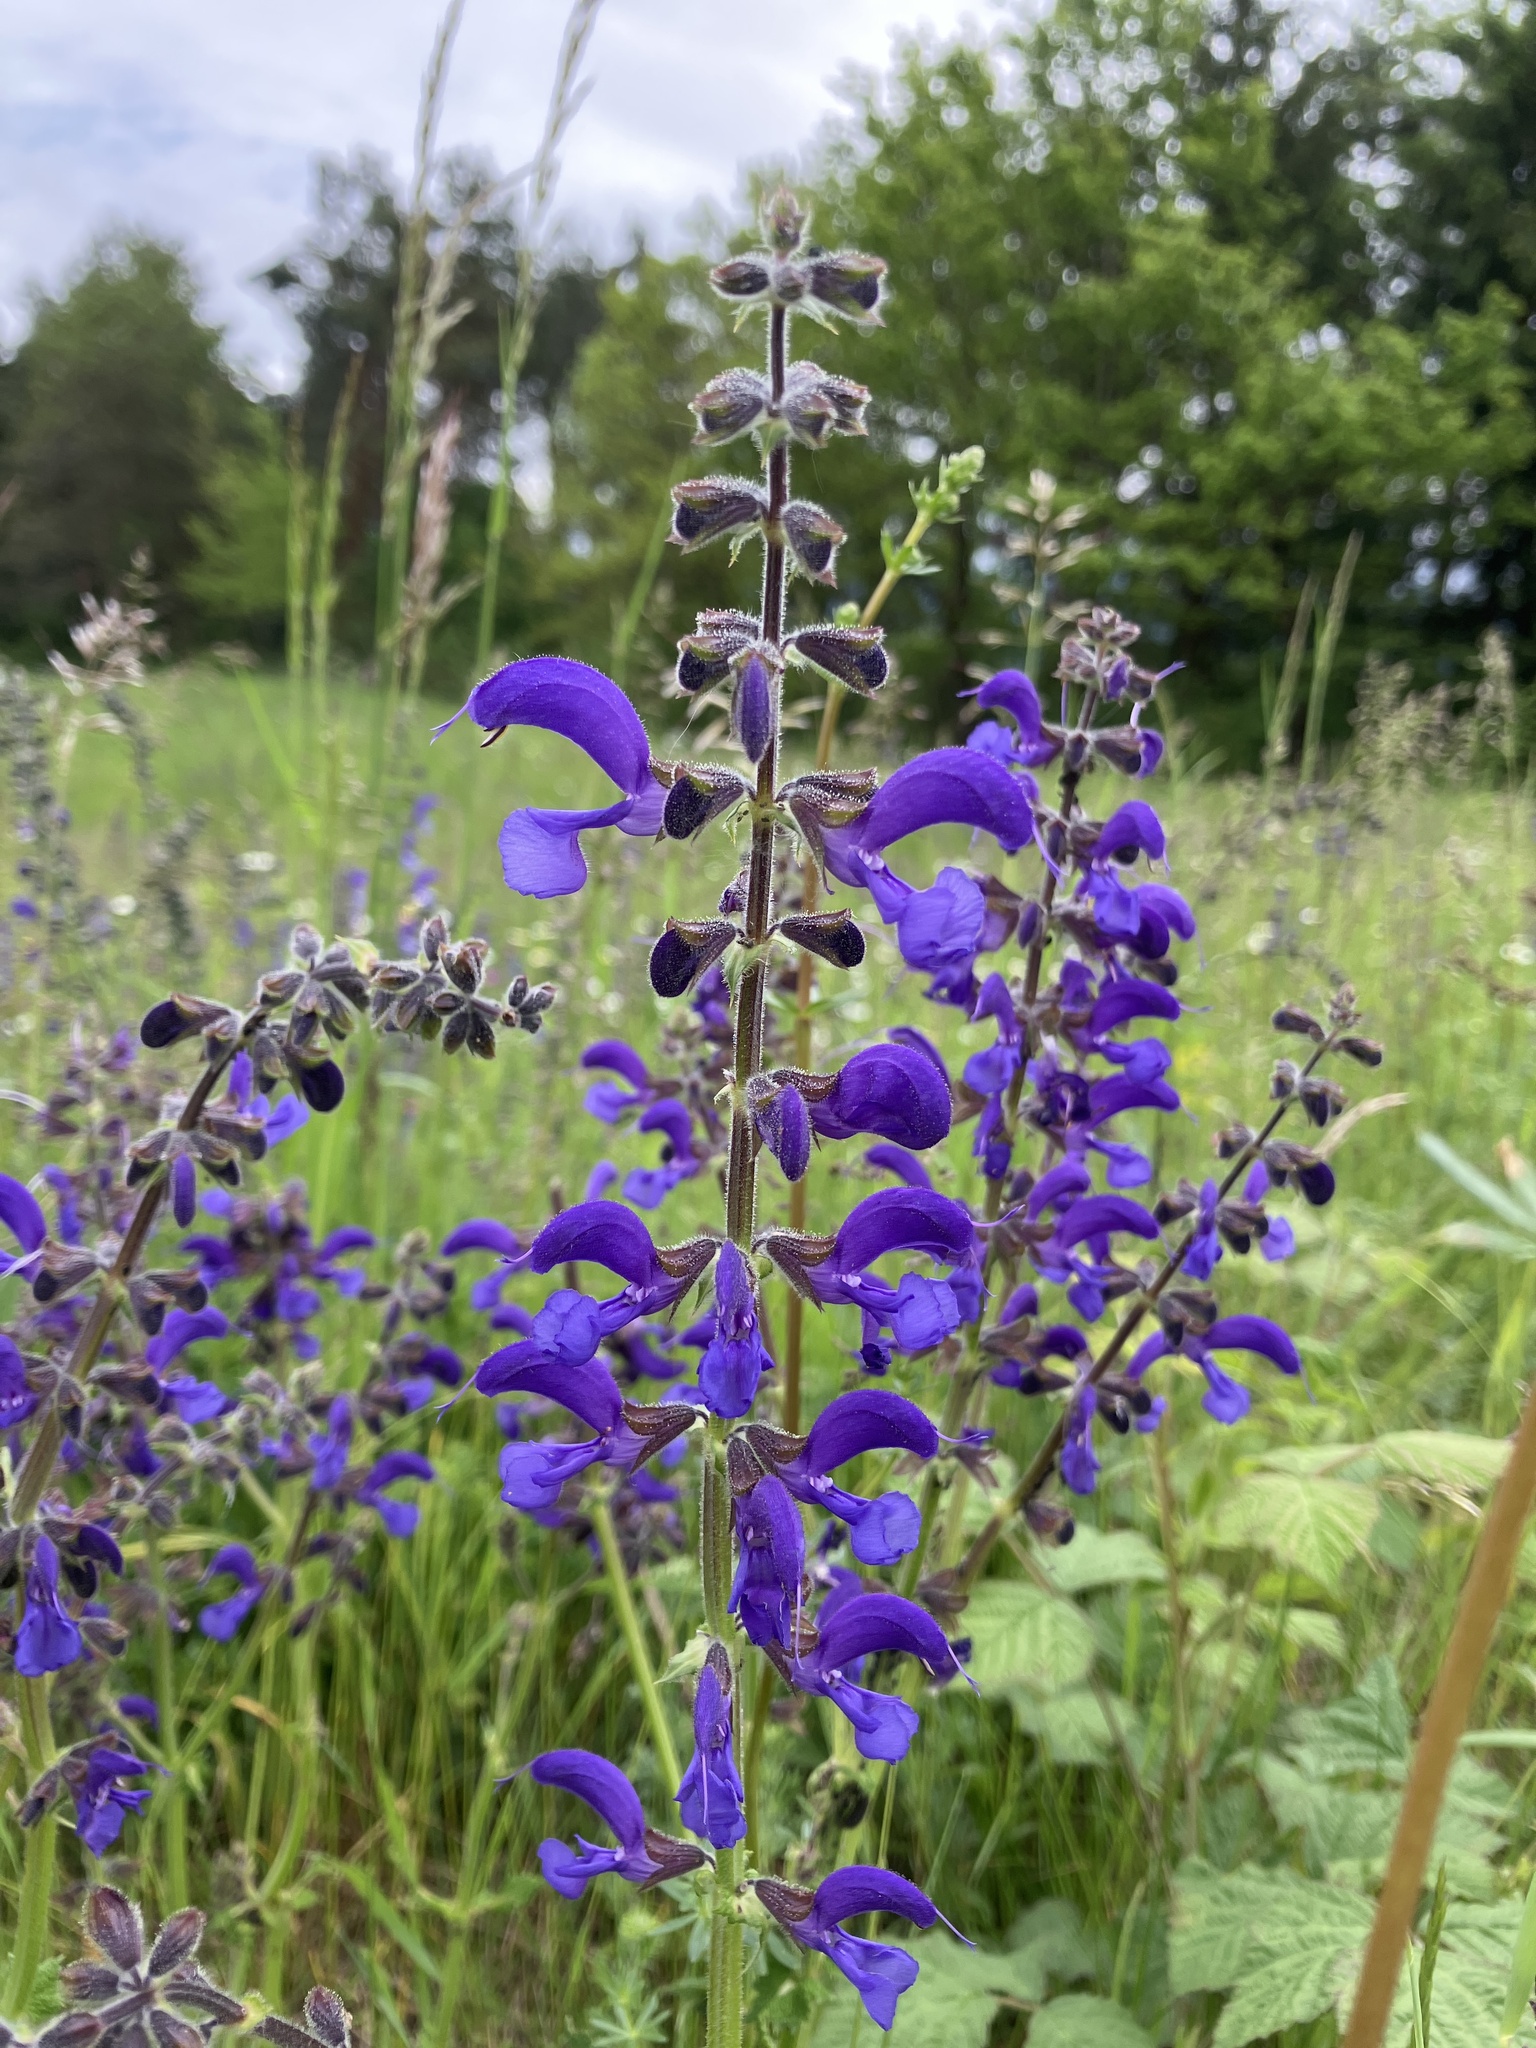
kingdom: Plantae
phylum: Tracheophyta
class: Magnoliopsida
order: Lamiales
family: Lamiaceae
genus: Salvia
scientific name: Salvia pratensis
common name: Meadow sage
